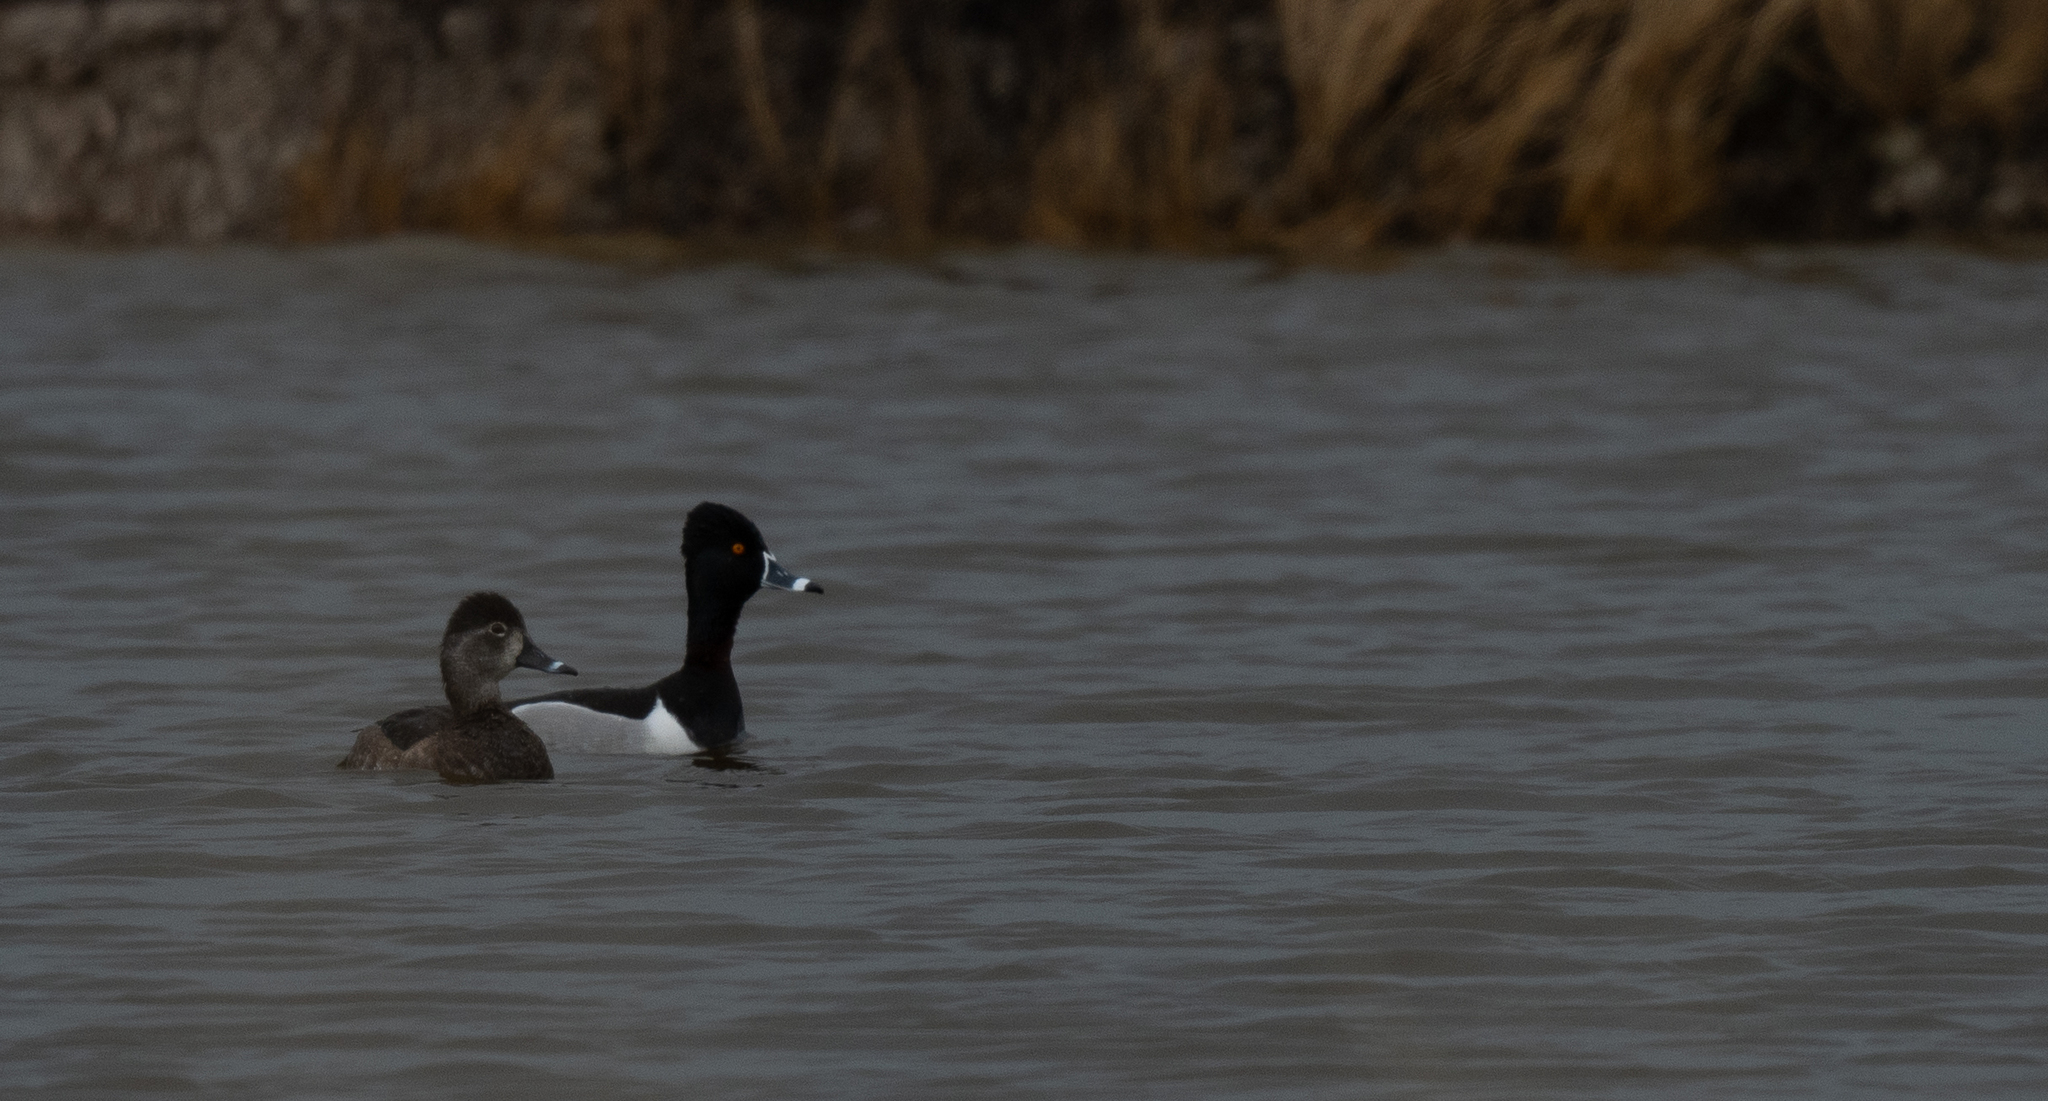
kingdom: Animalia
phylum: Chordata
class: Aves
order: Anseriformes
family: Anatidae
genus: Aythya
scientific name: Aythya collaris
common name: Ring-necked duck
